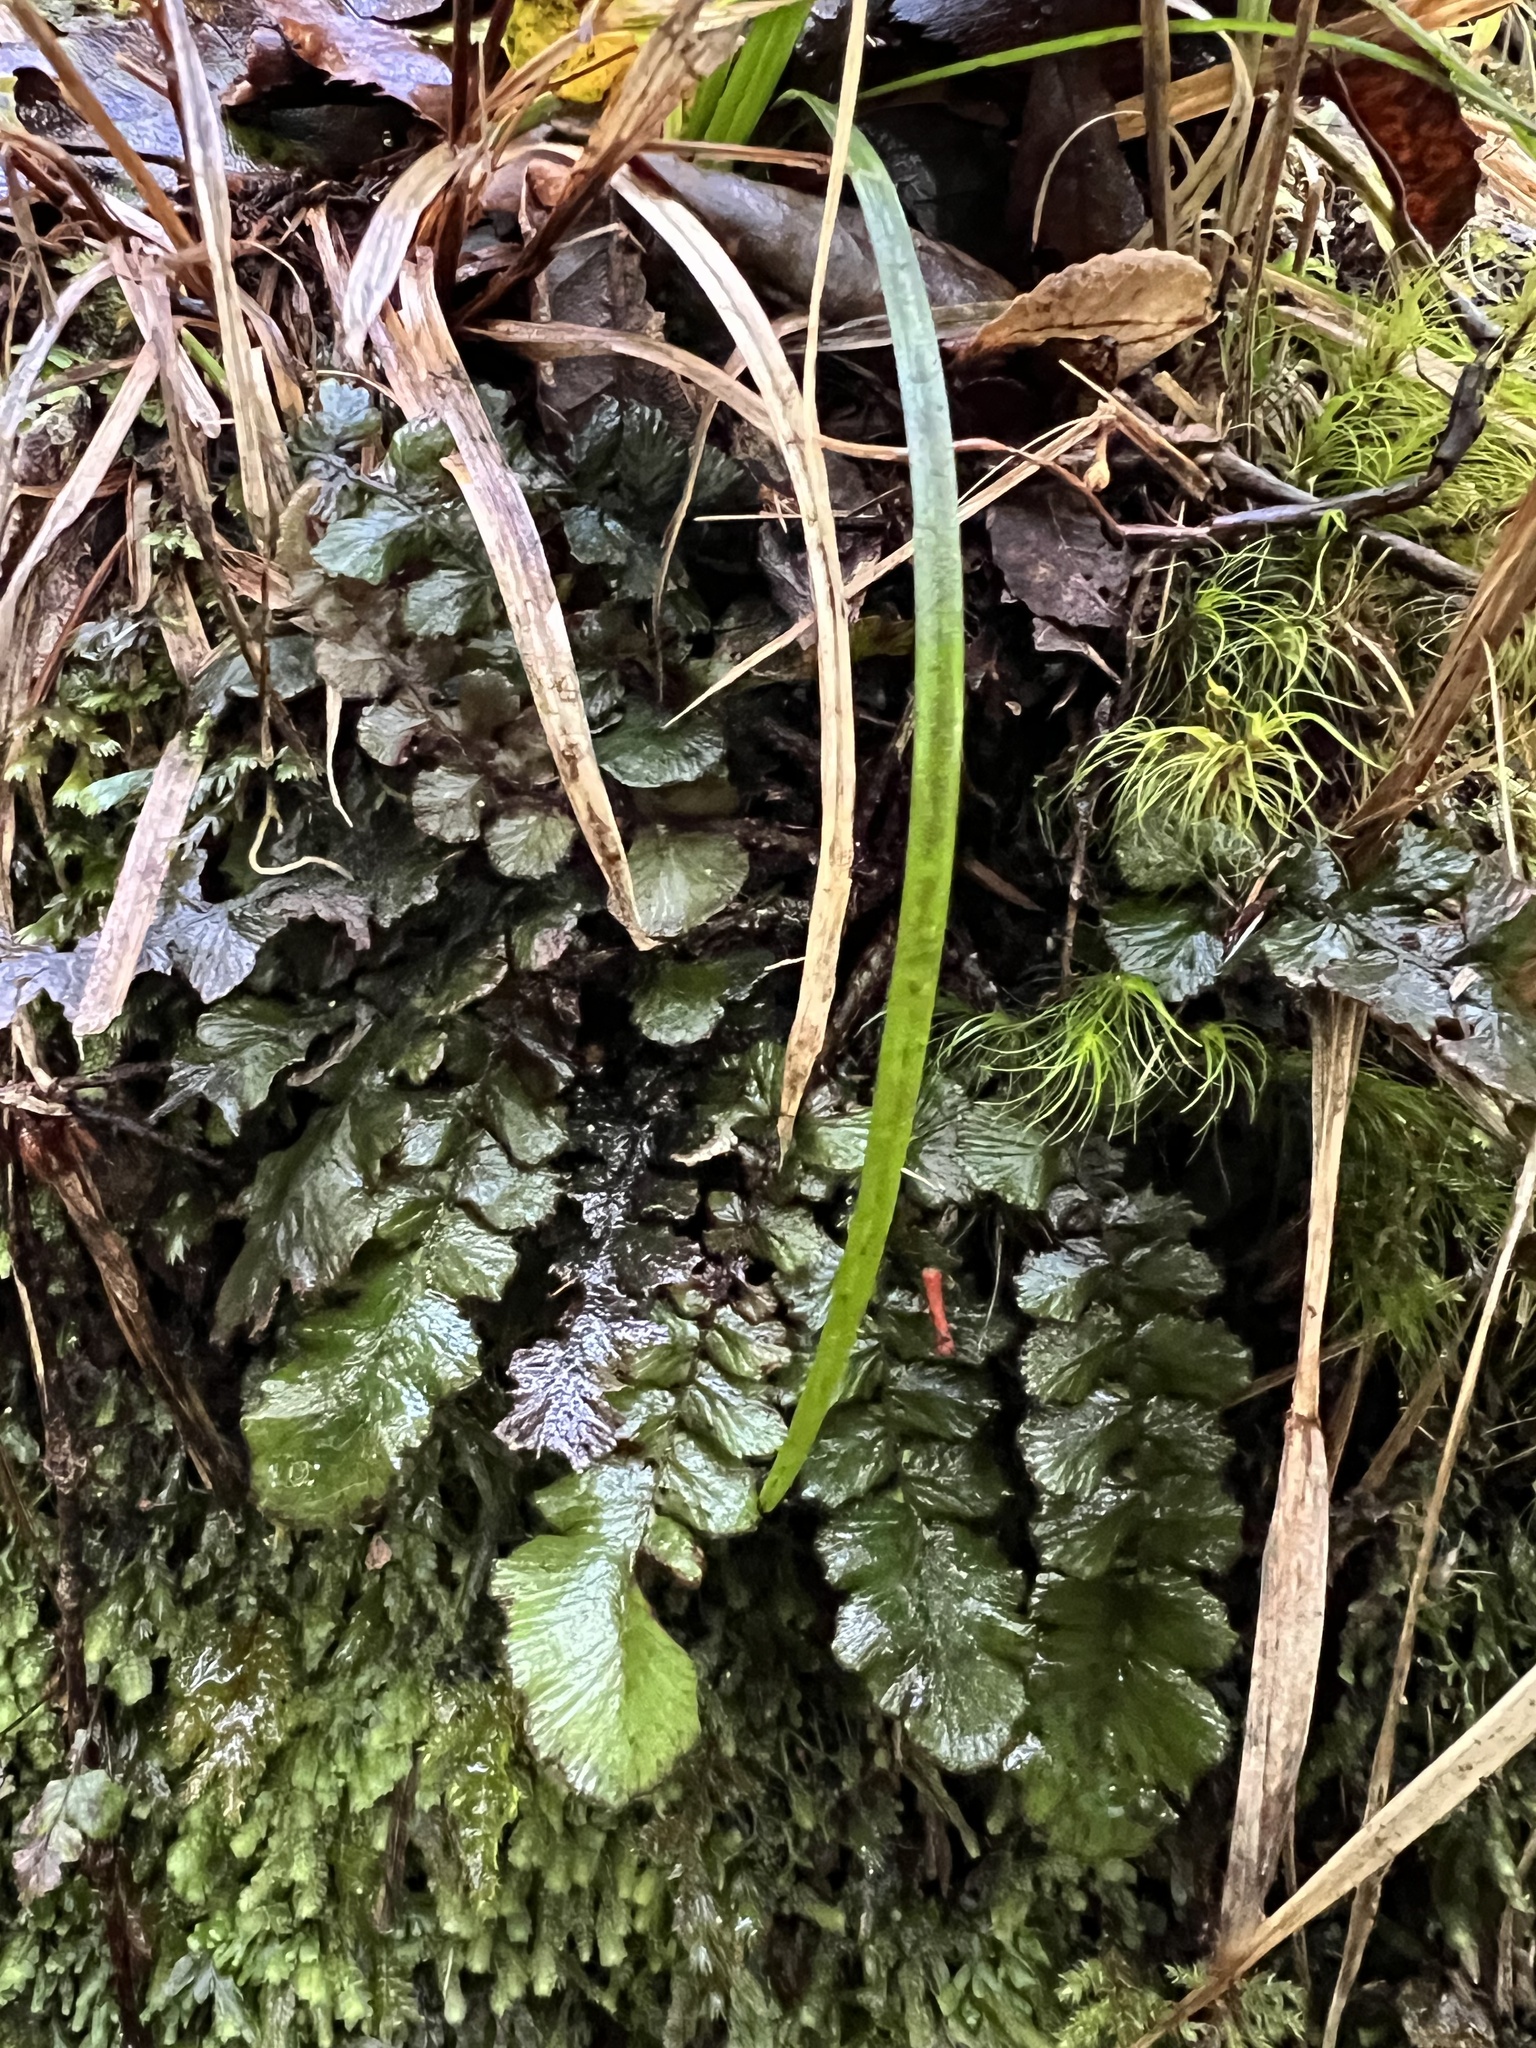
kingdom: Plantae
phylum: Tracheophyta
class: Polypodiopsida
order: Polypodiales
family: Blechnaceae
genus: Cranfillia
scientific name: Cranfillia nigra
